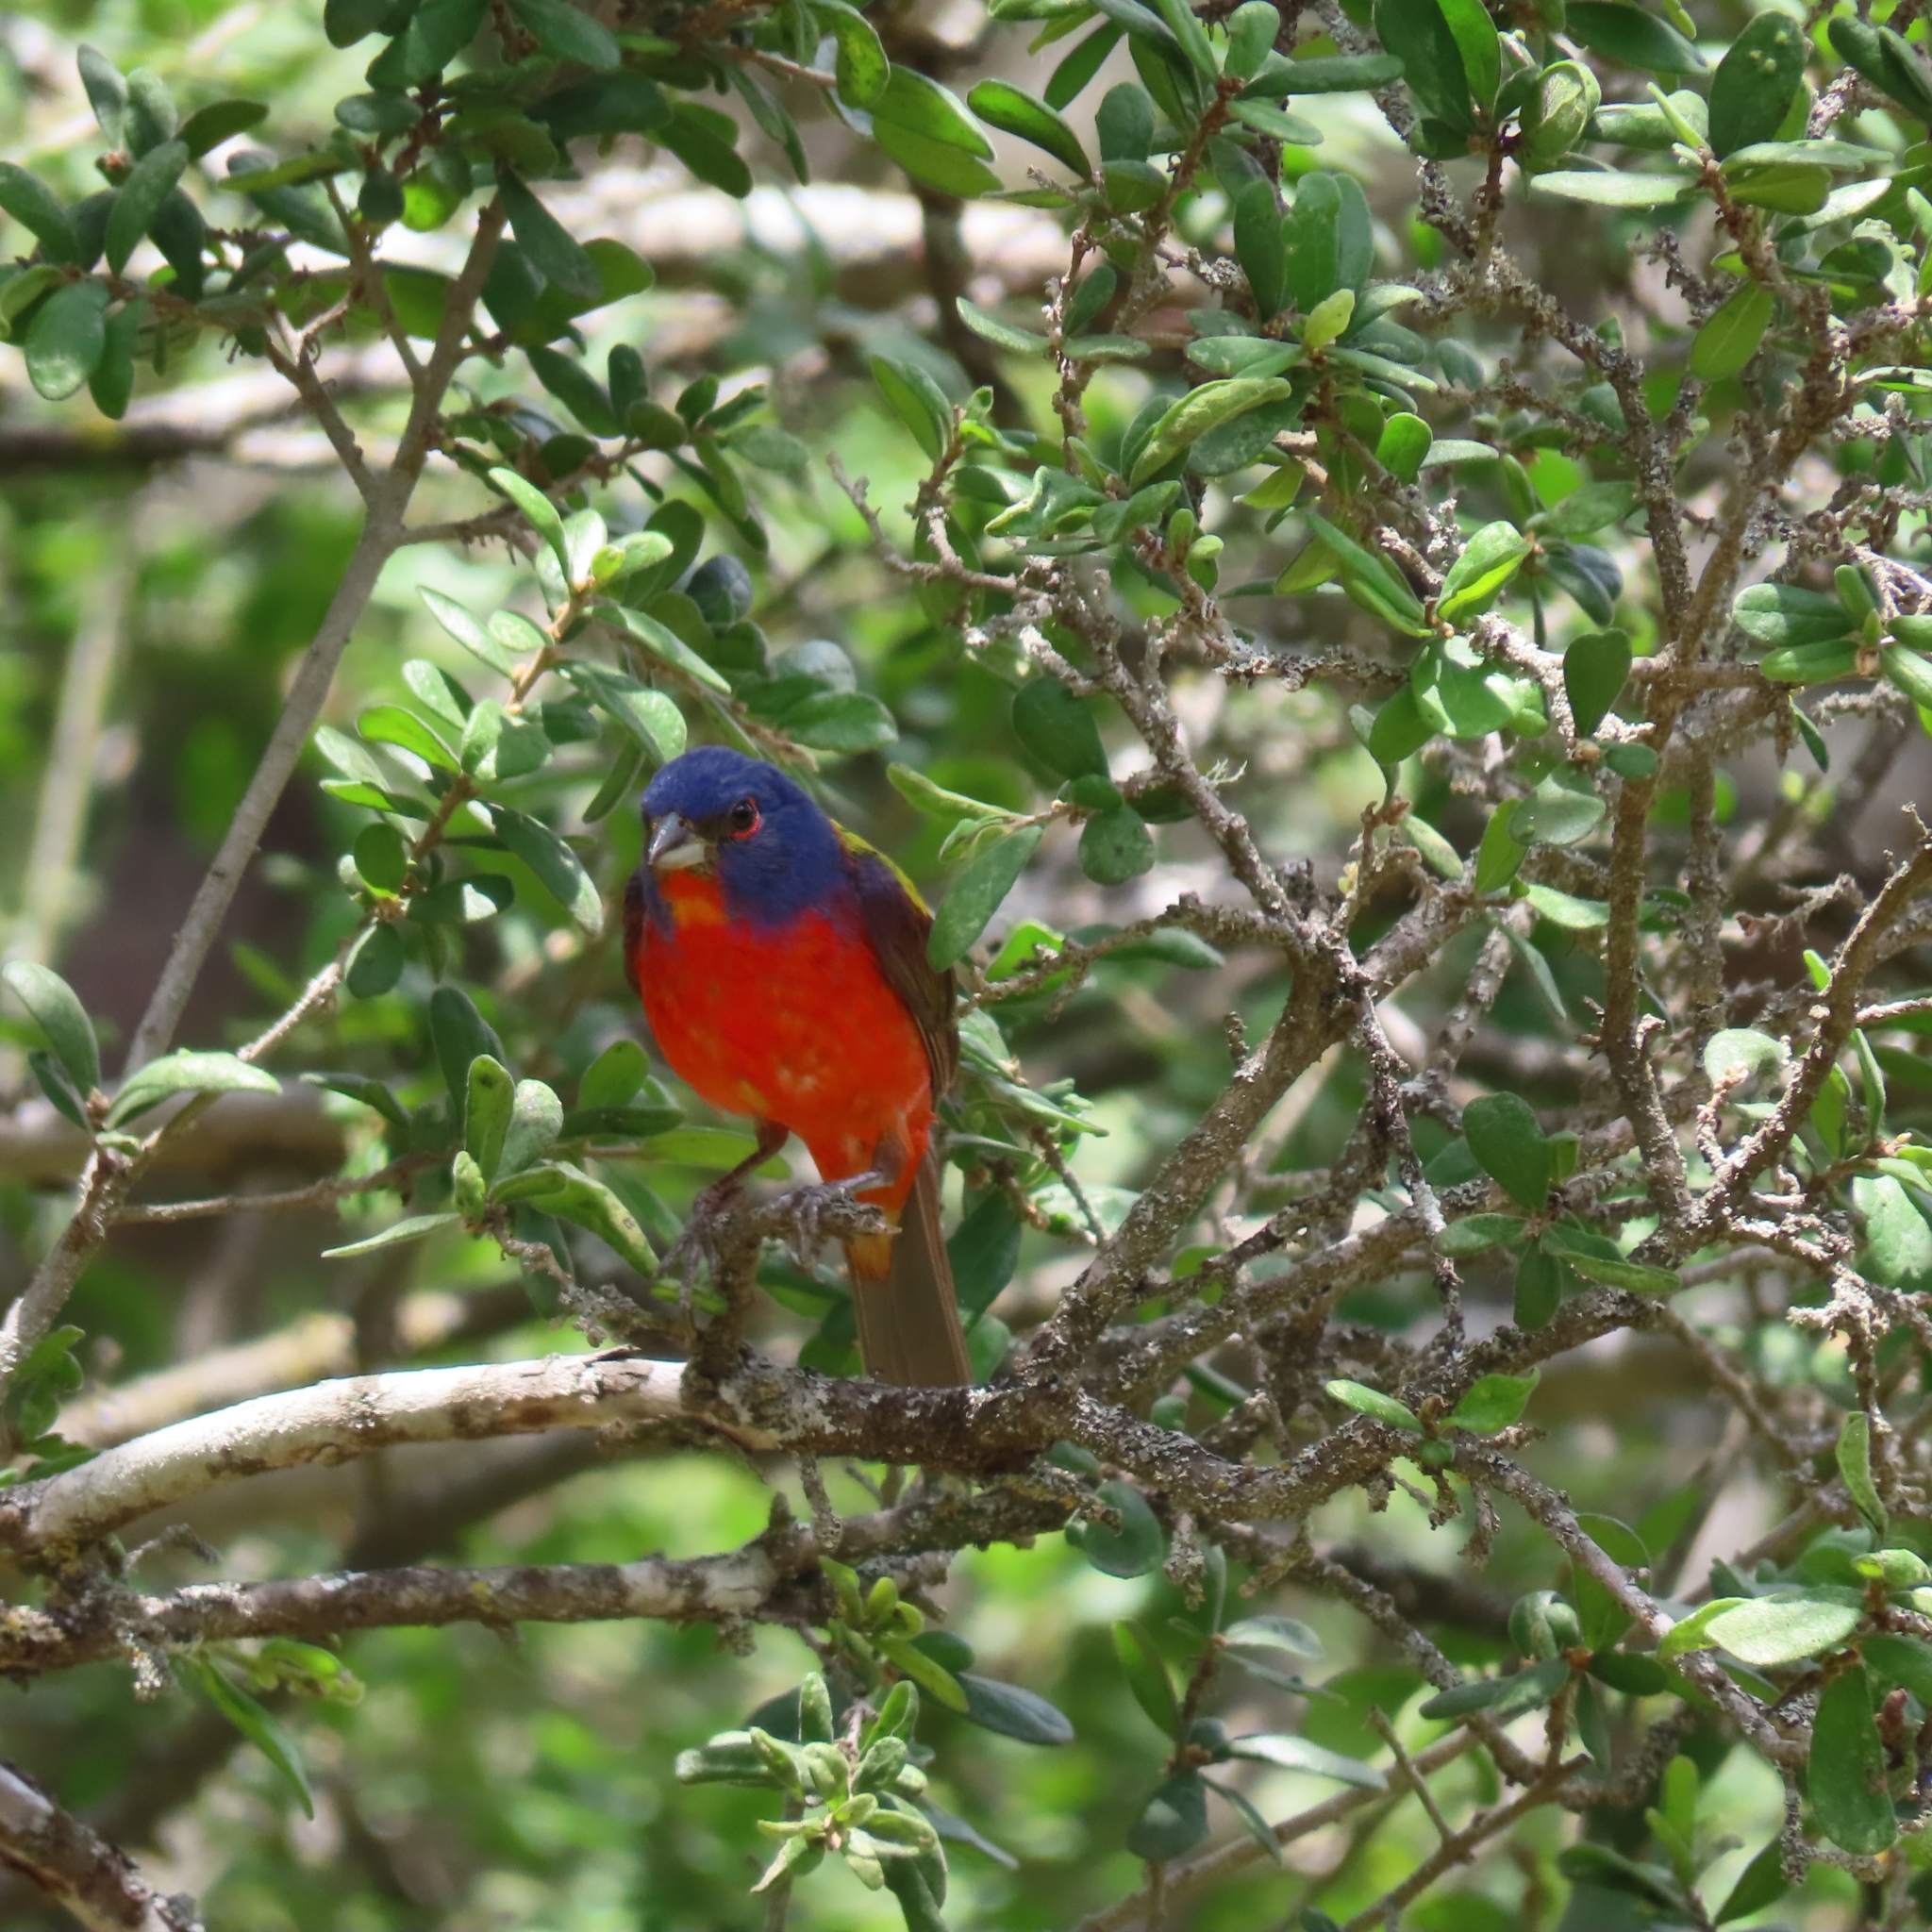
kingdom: Animalia
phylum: Chordata
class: Aves
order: Passeriformes
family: Cardinalidae
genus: Passerina
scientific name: Passerina ciris
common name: Painted bunting
